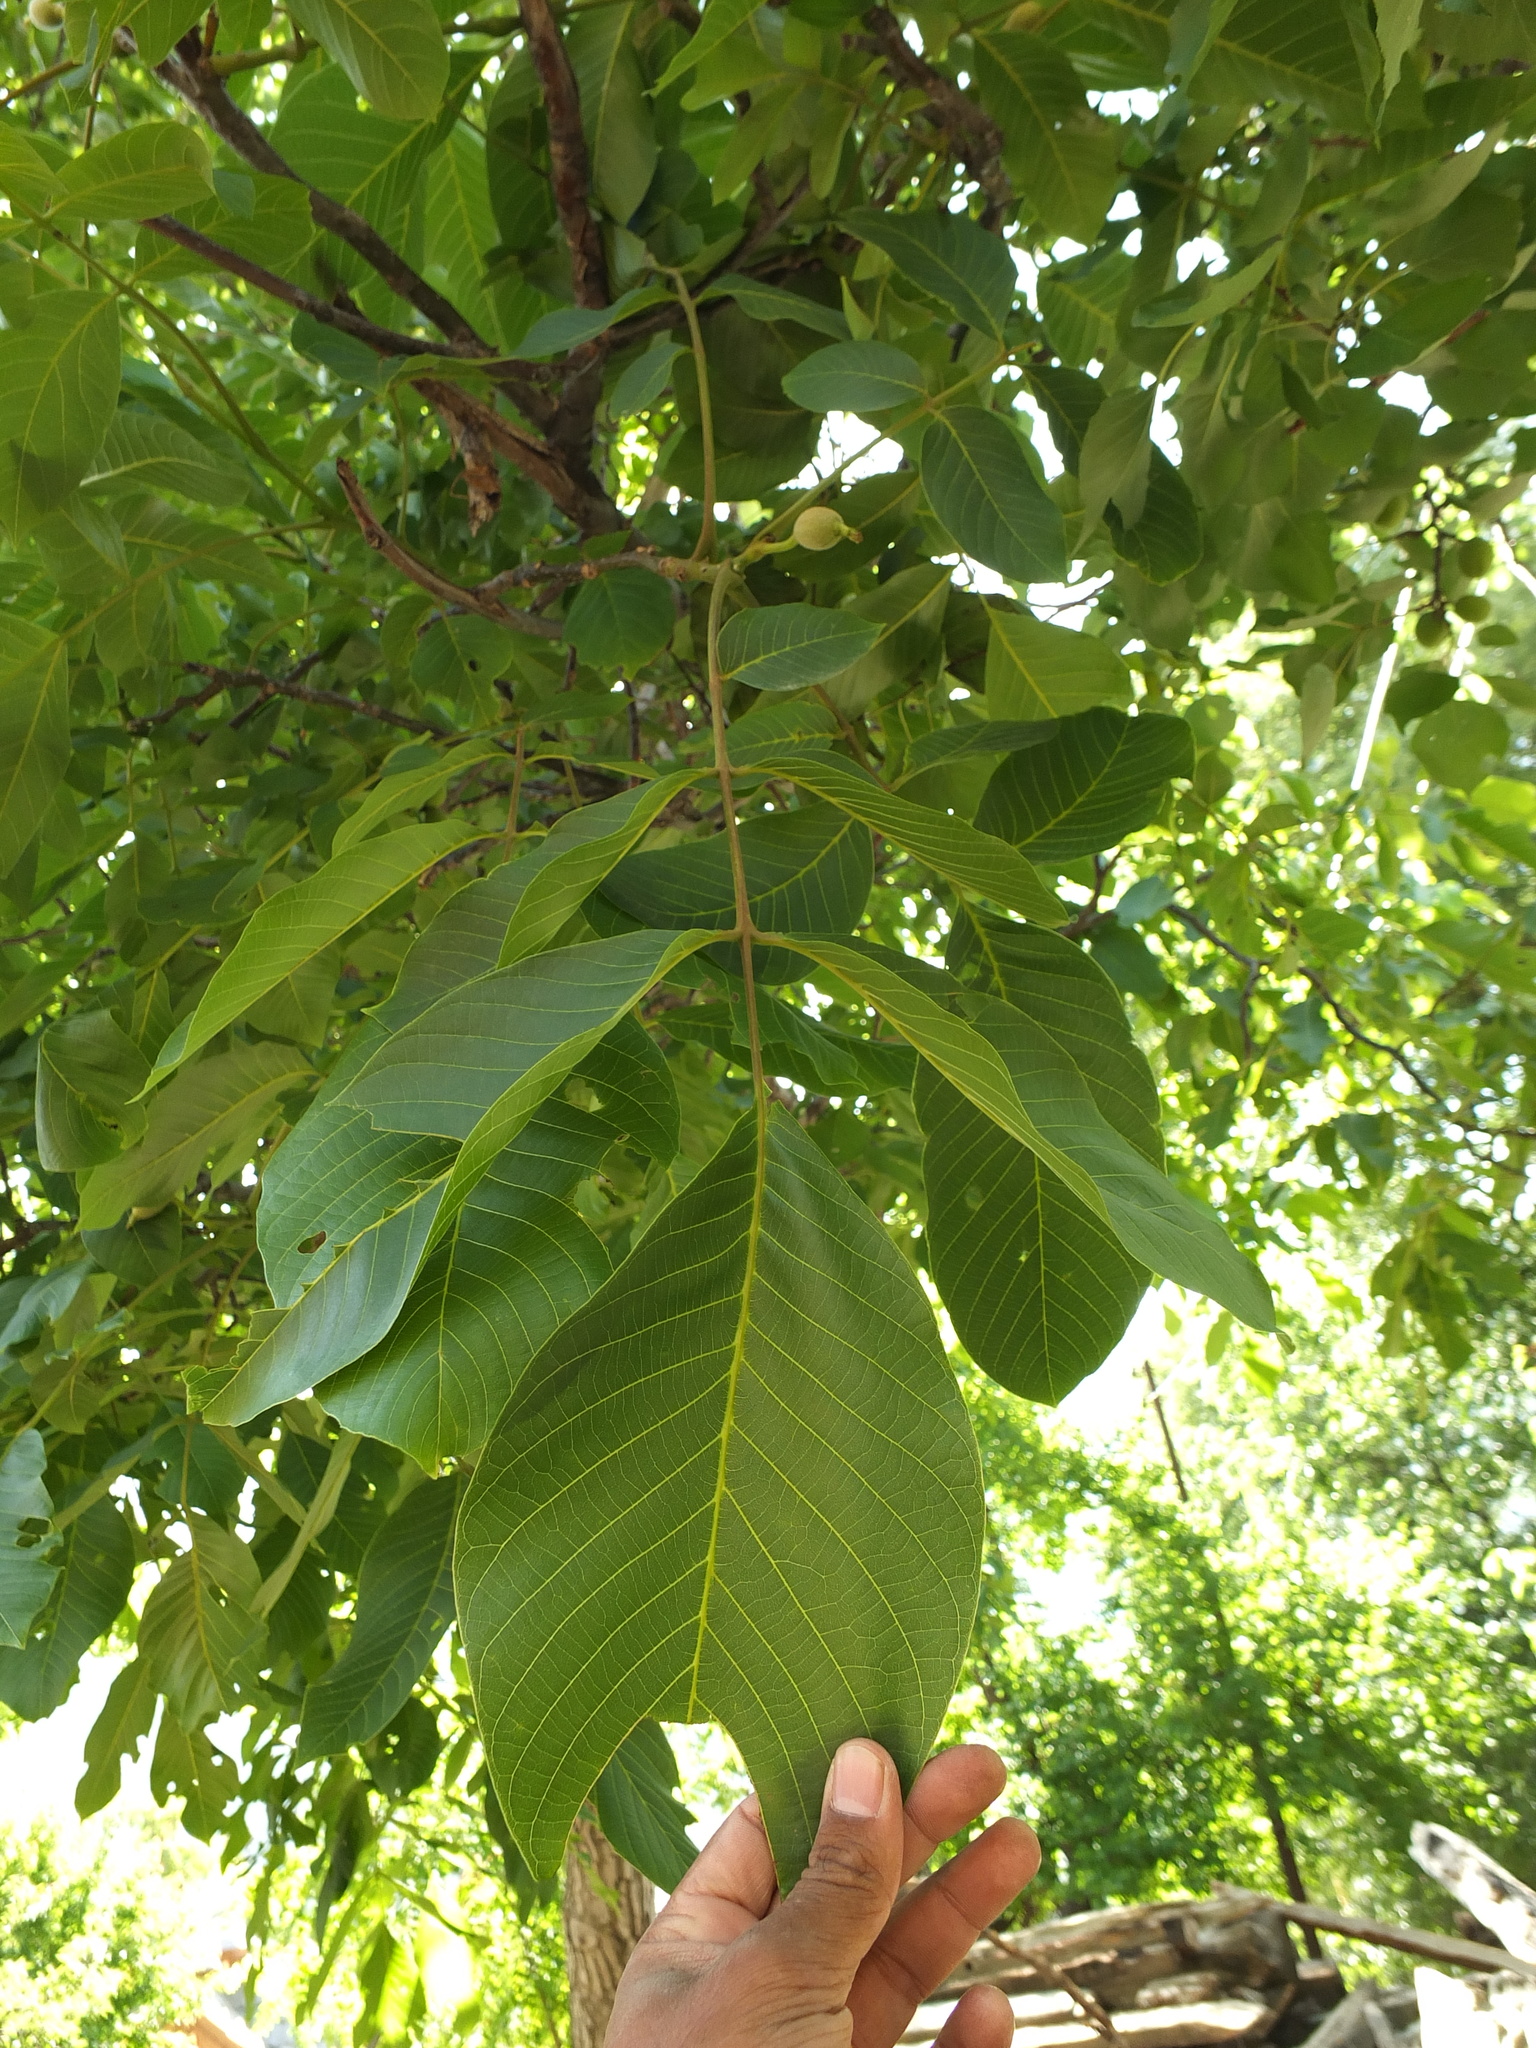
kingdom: Plantae
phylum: Tracheophyta
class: Magnoliopsida
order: Fagales
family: Juglandaceae
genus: Juglans
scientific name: Juglans regia
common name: Walnut
